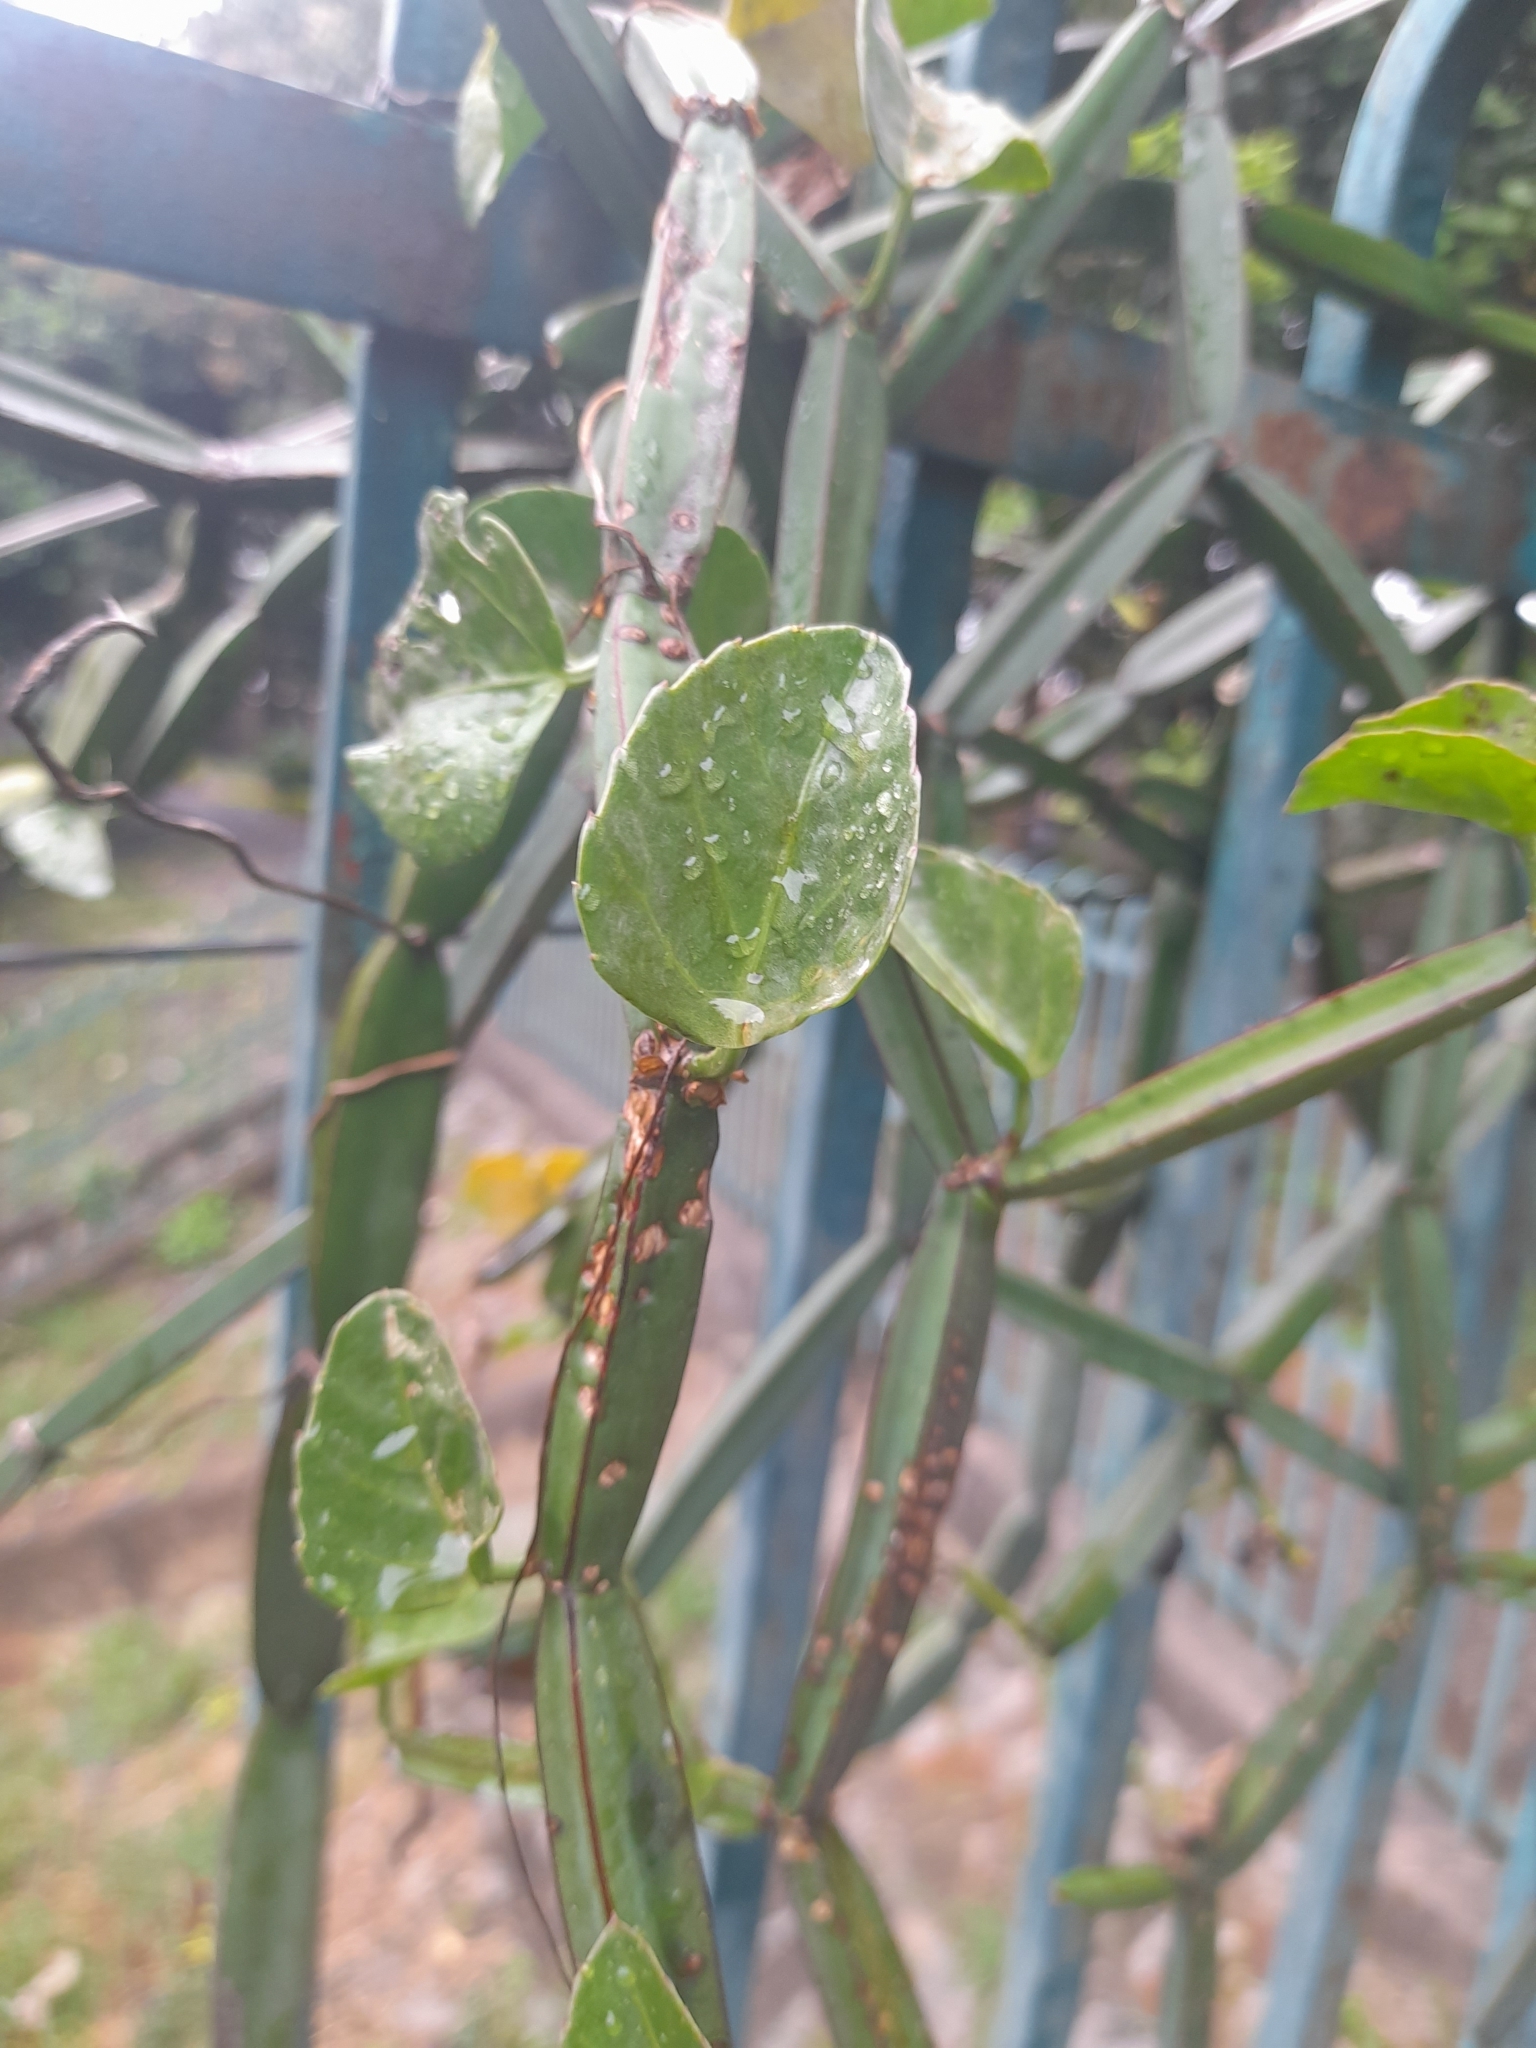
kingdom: Plantae
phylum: Tracheophyta
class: Magnoliopsida
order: Vitales
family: Vitaceae
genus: Cissus
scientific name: Cissus quadrangularis
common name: Veldt-grape
